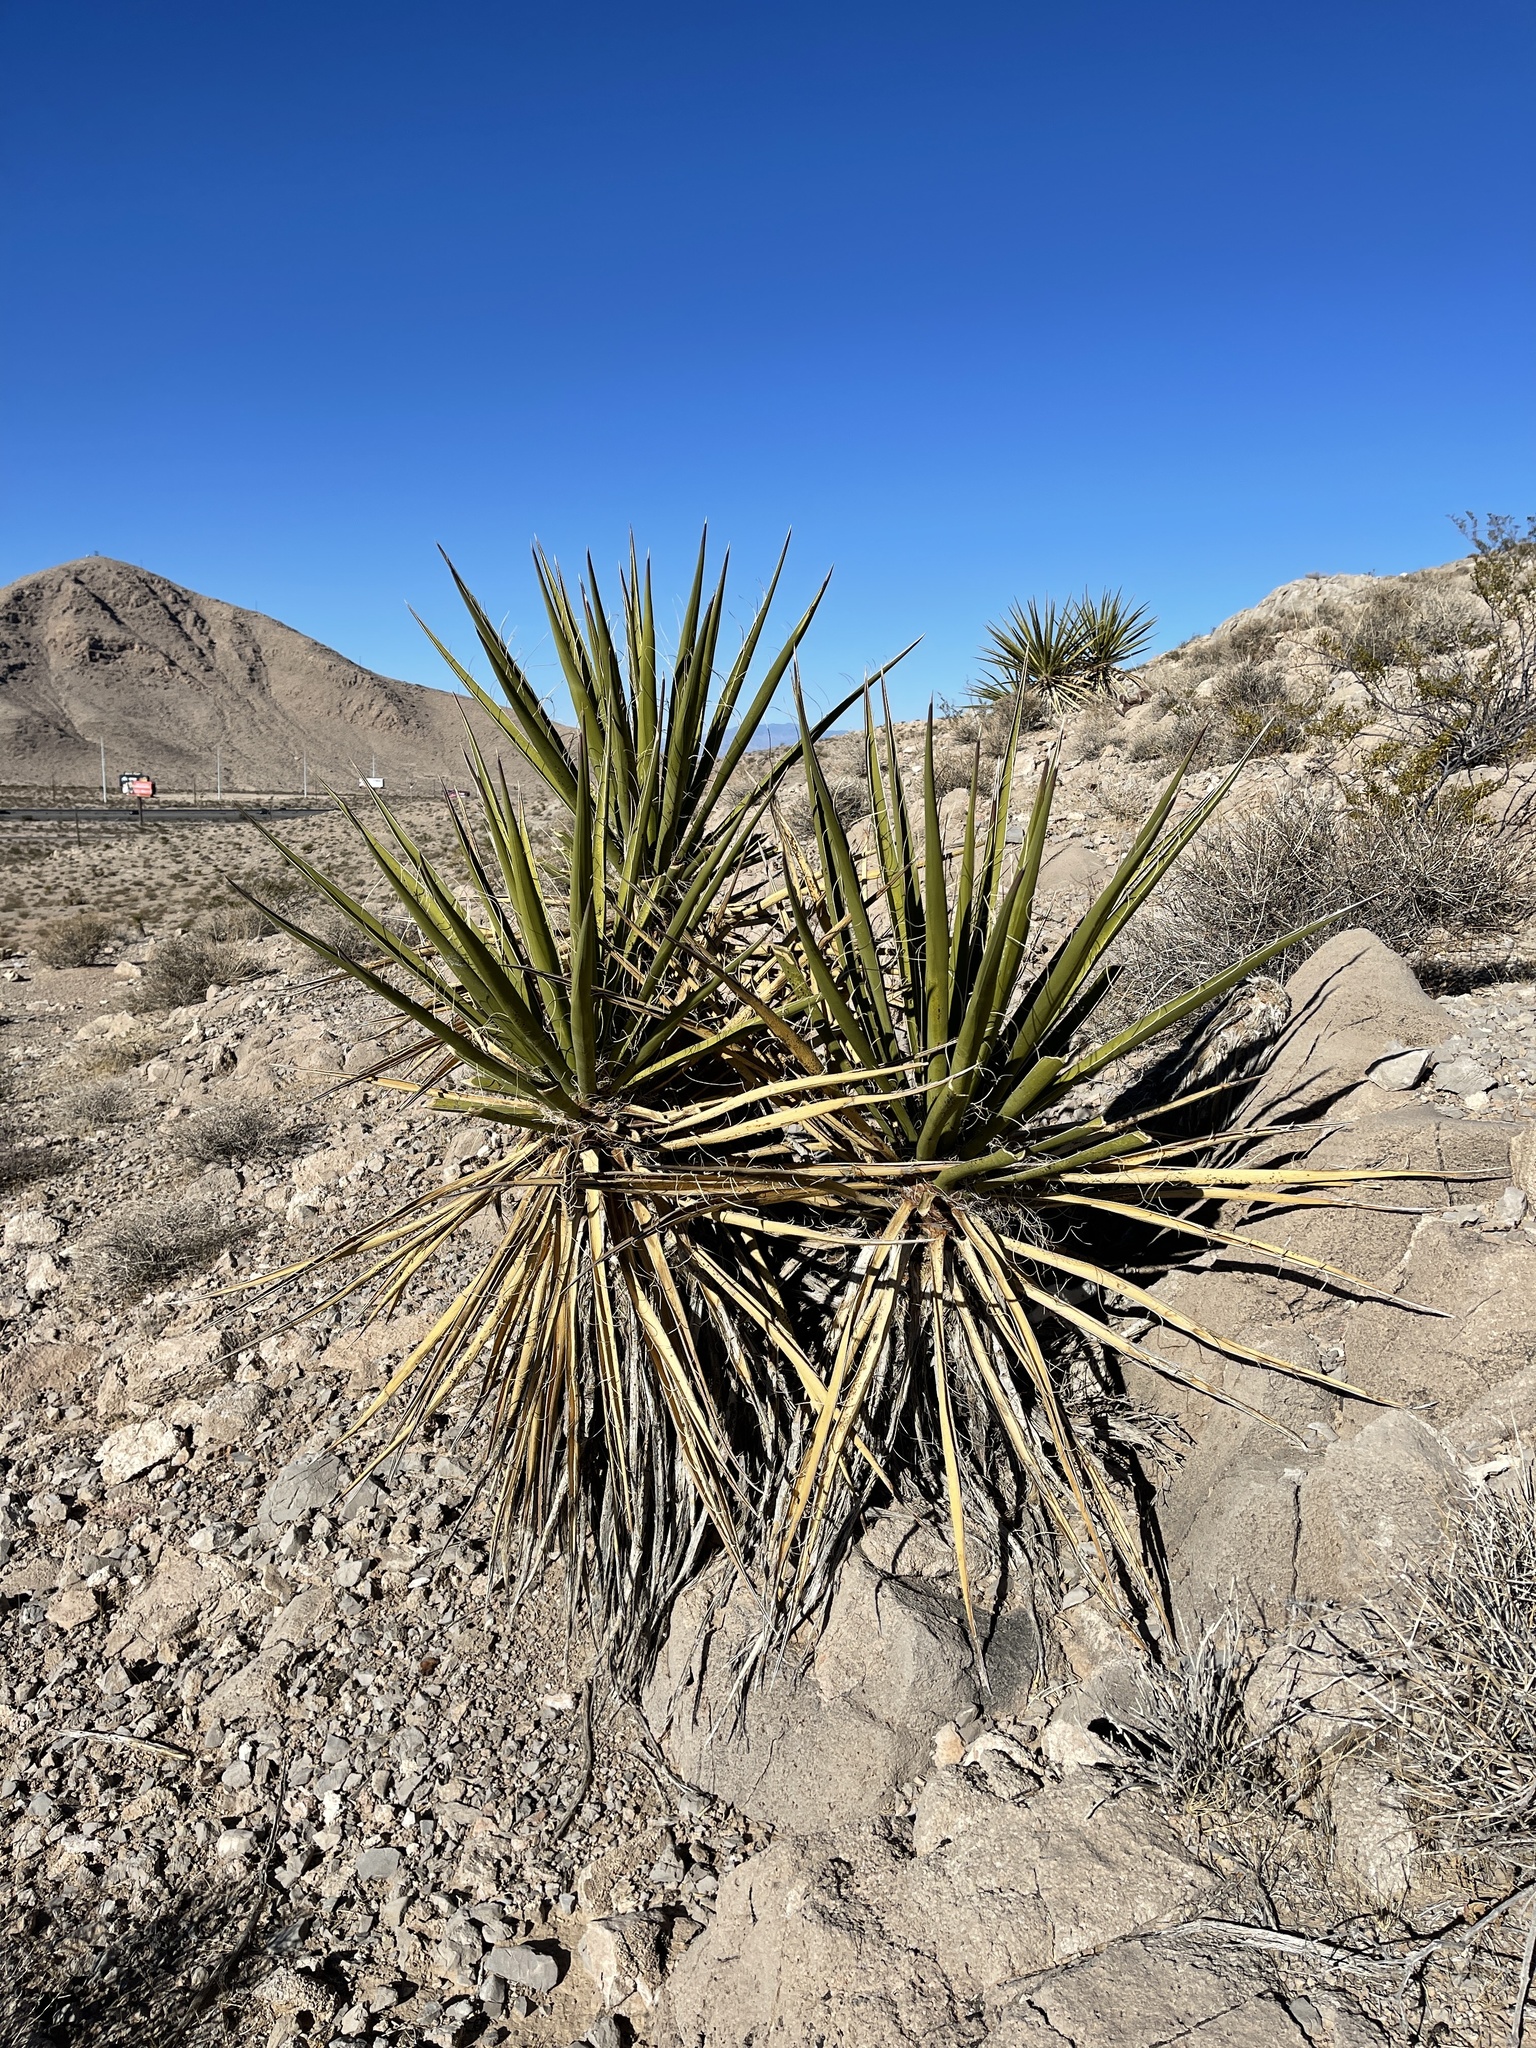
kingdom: Plantae
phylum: Tracheophyta
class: Liliopsida
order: Asparagales
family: Asparagaceae
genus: Yucca
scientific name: Yucca schidigera
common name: Mojave yucca
